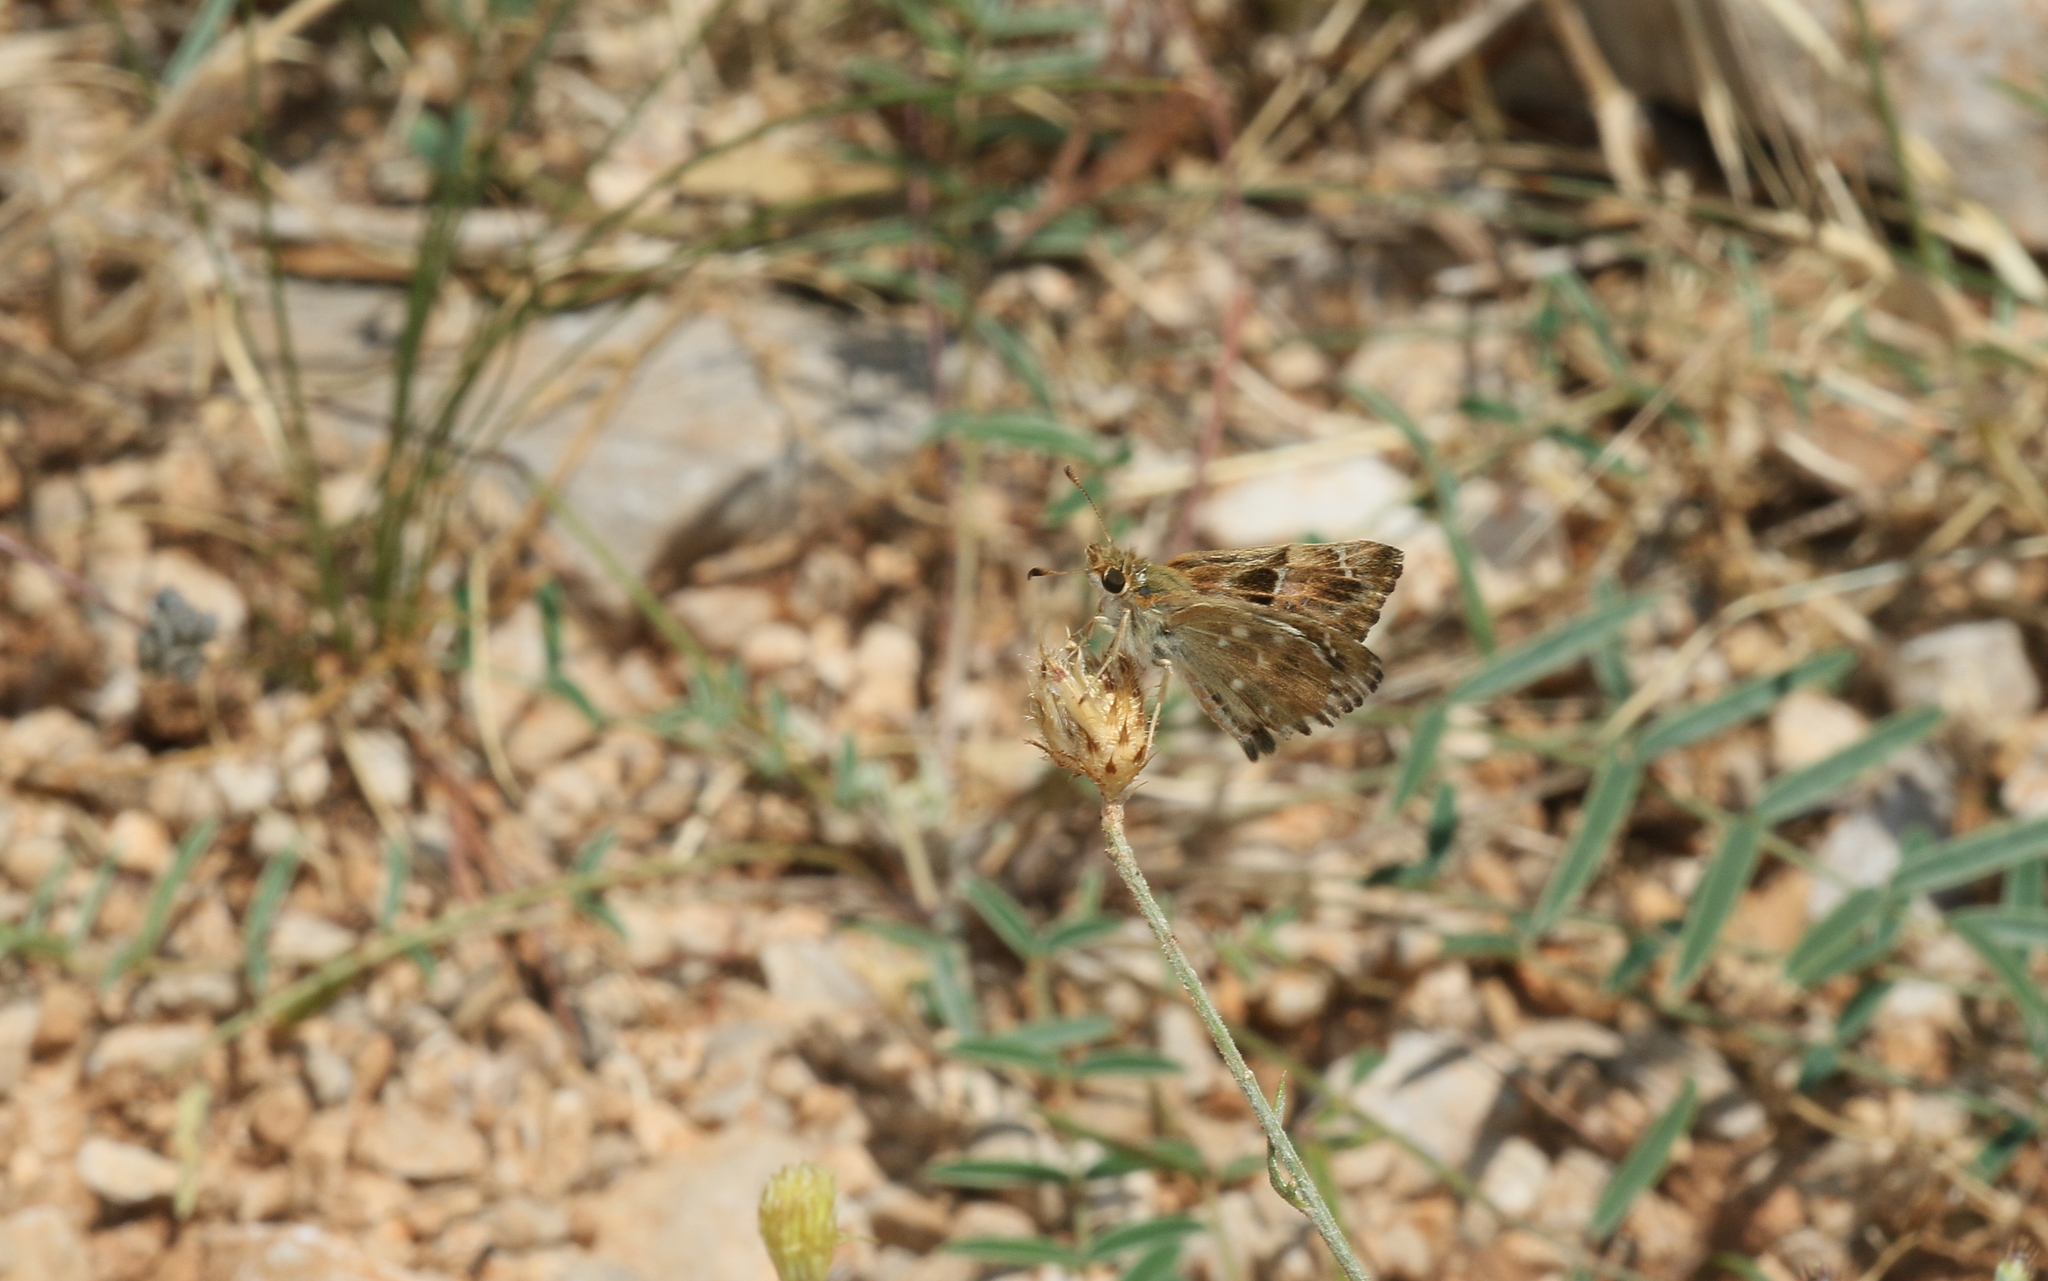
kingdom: Animalia
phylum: Arthropoda
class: Insecta
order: Lepidoptera
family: Hesperiidae
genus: Carcharodus
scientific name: Carcharodus alceae
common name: Mallow skipper
